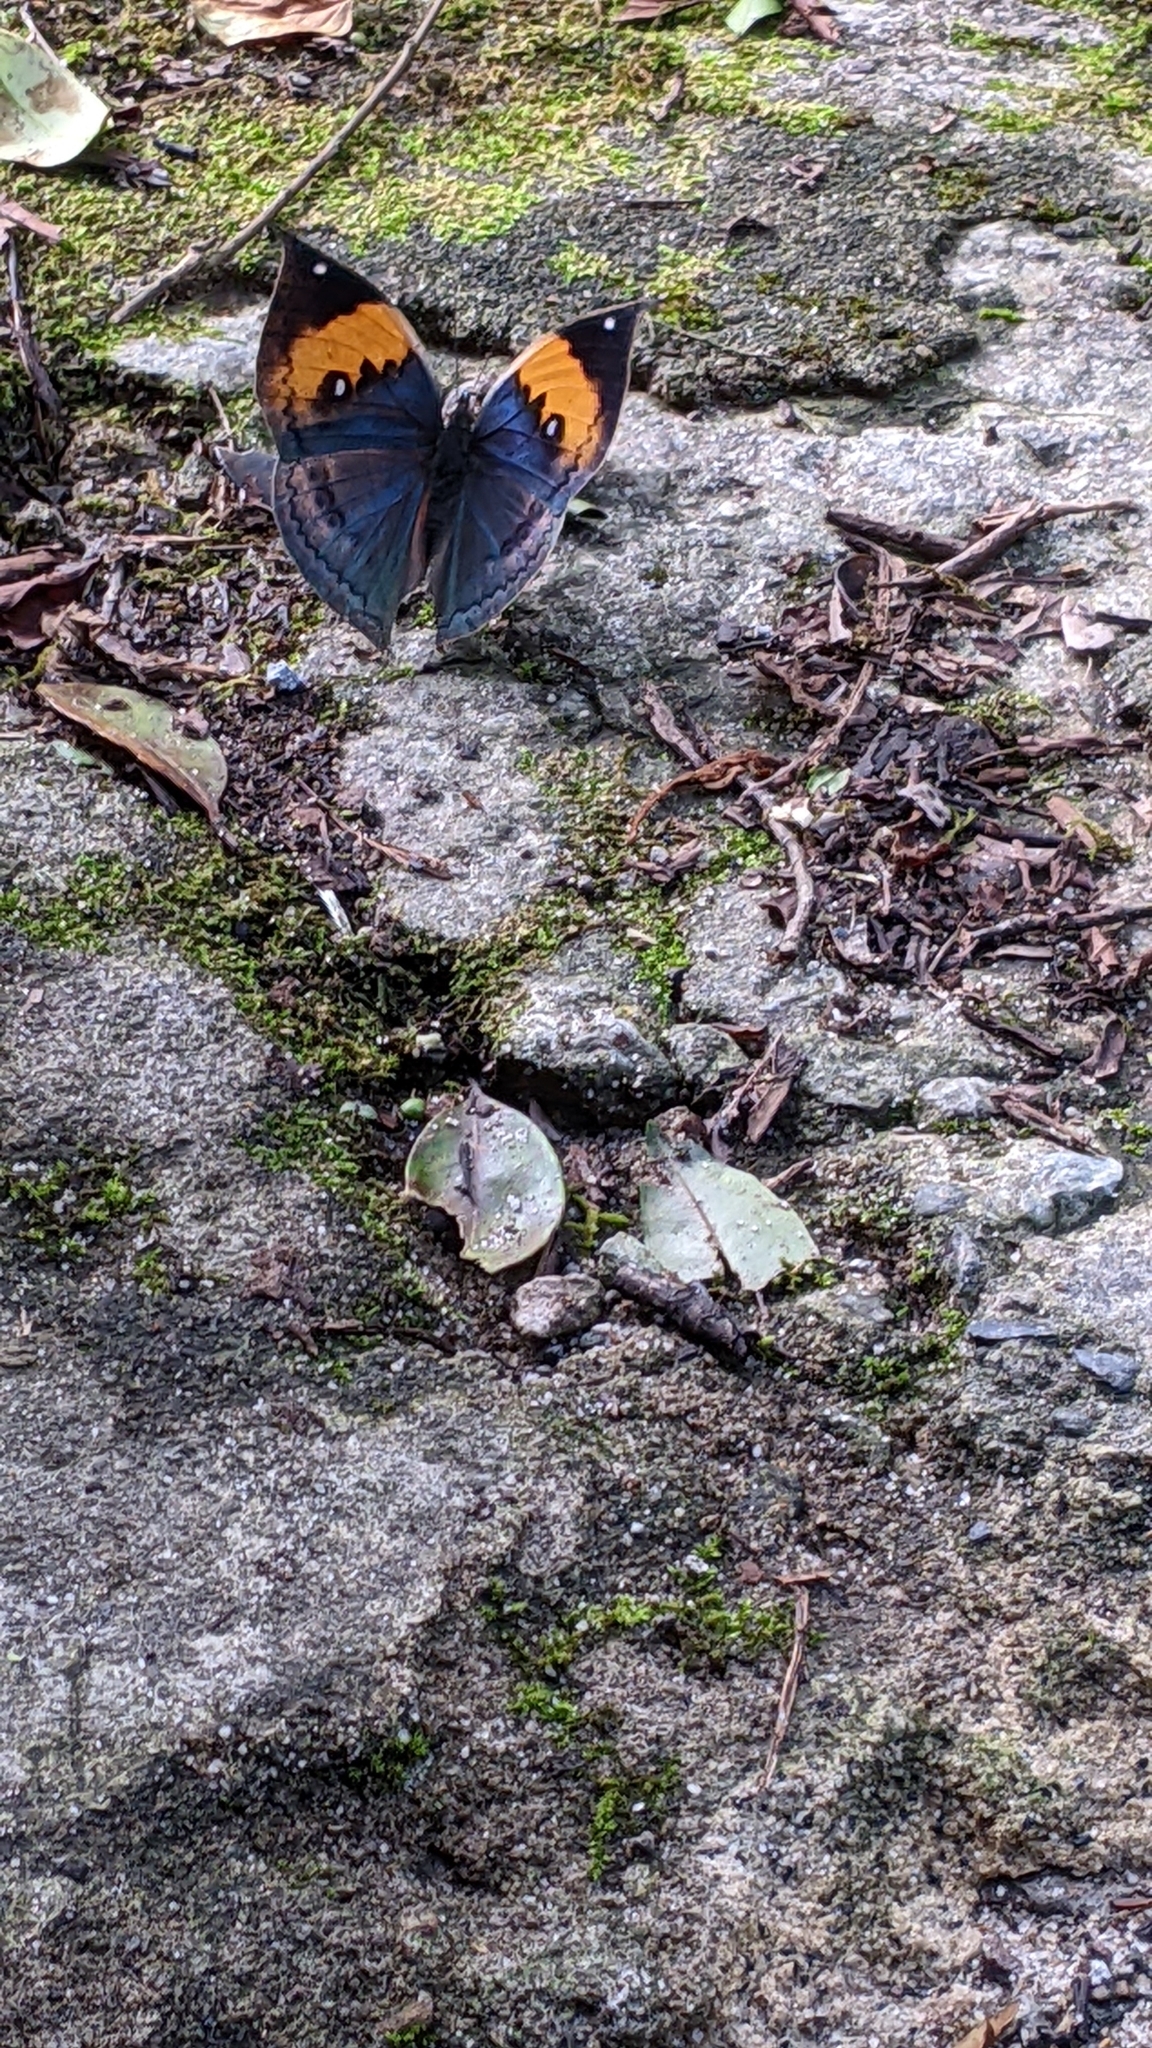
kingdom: Animalia
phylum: Arthropoda
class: Insecta
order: Lepidoptera
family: Nymphalidae
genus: Kallima
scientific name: Kallima inachus
